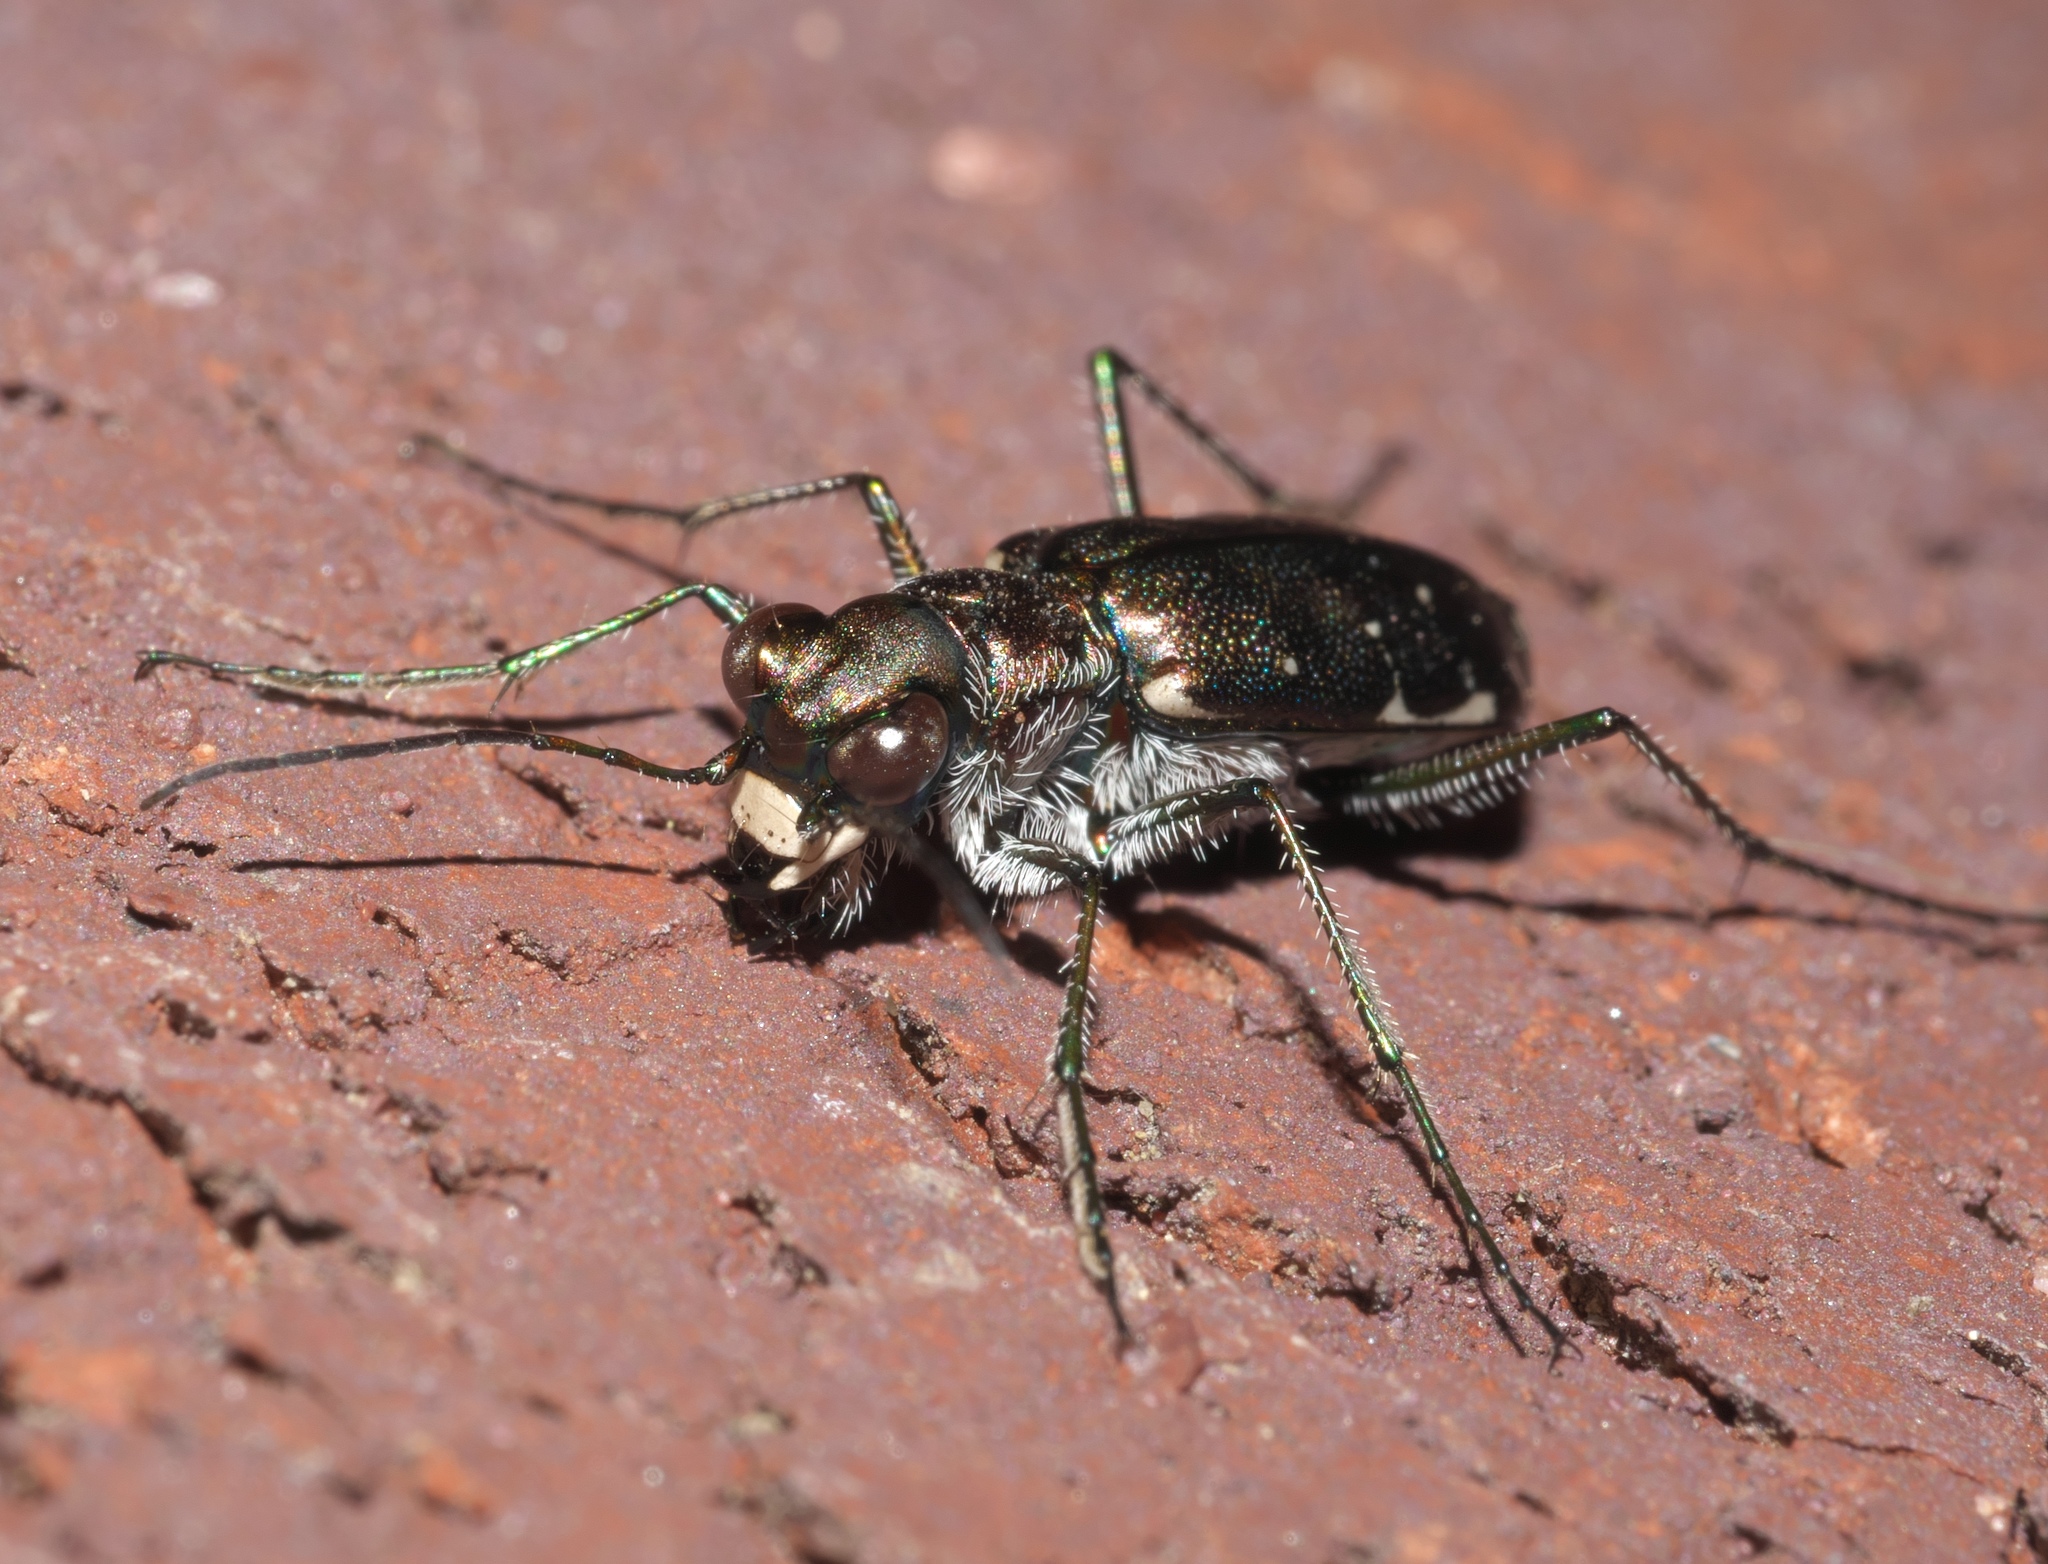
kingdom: Animalia
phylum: Arthropoda
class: Insecta
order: Coleoptera
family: Carabidae
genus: Cicindela
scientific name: Cicindela punctulata
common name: Punctured tiger beetle
